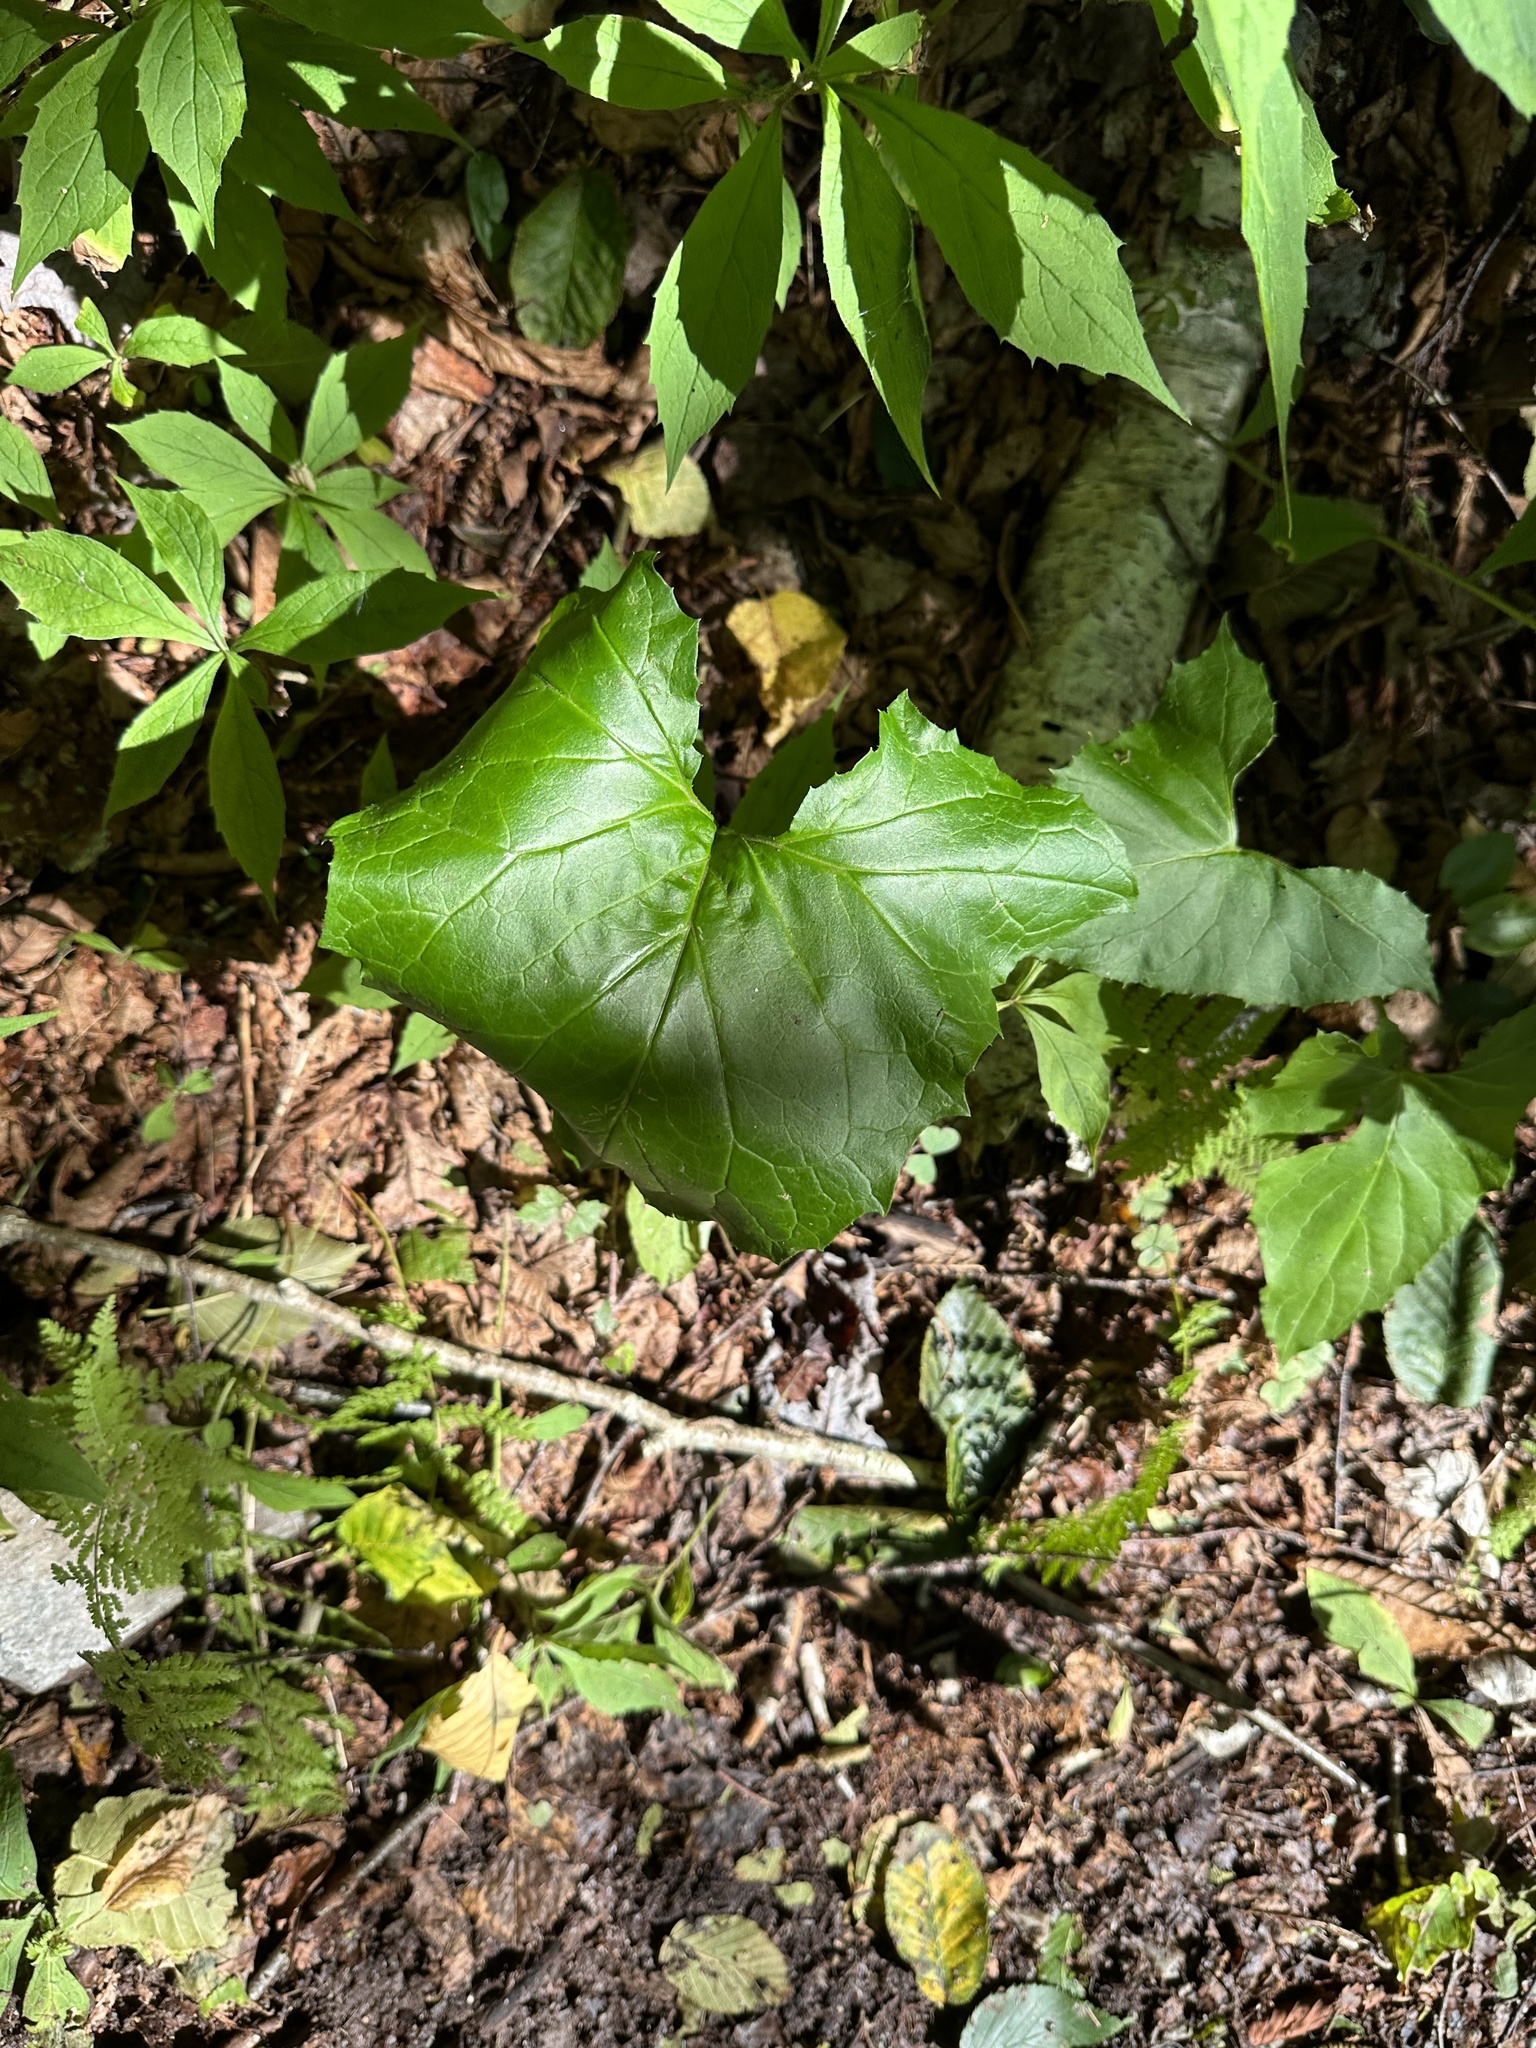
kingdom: Plantae
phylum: Tracheophyta
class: Magnoliopsida
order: Asterales
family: Asteraceae
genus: Nabalus
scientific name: Nabalus altissima
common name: Tall rattlesnakeroot
